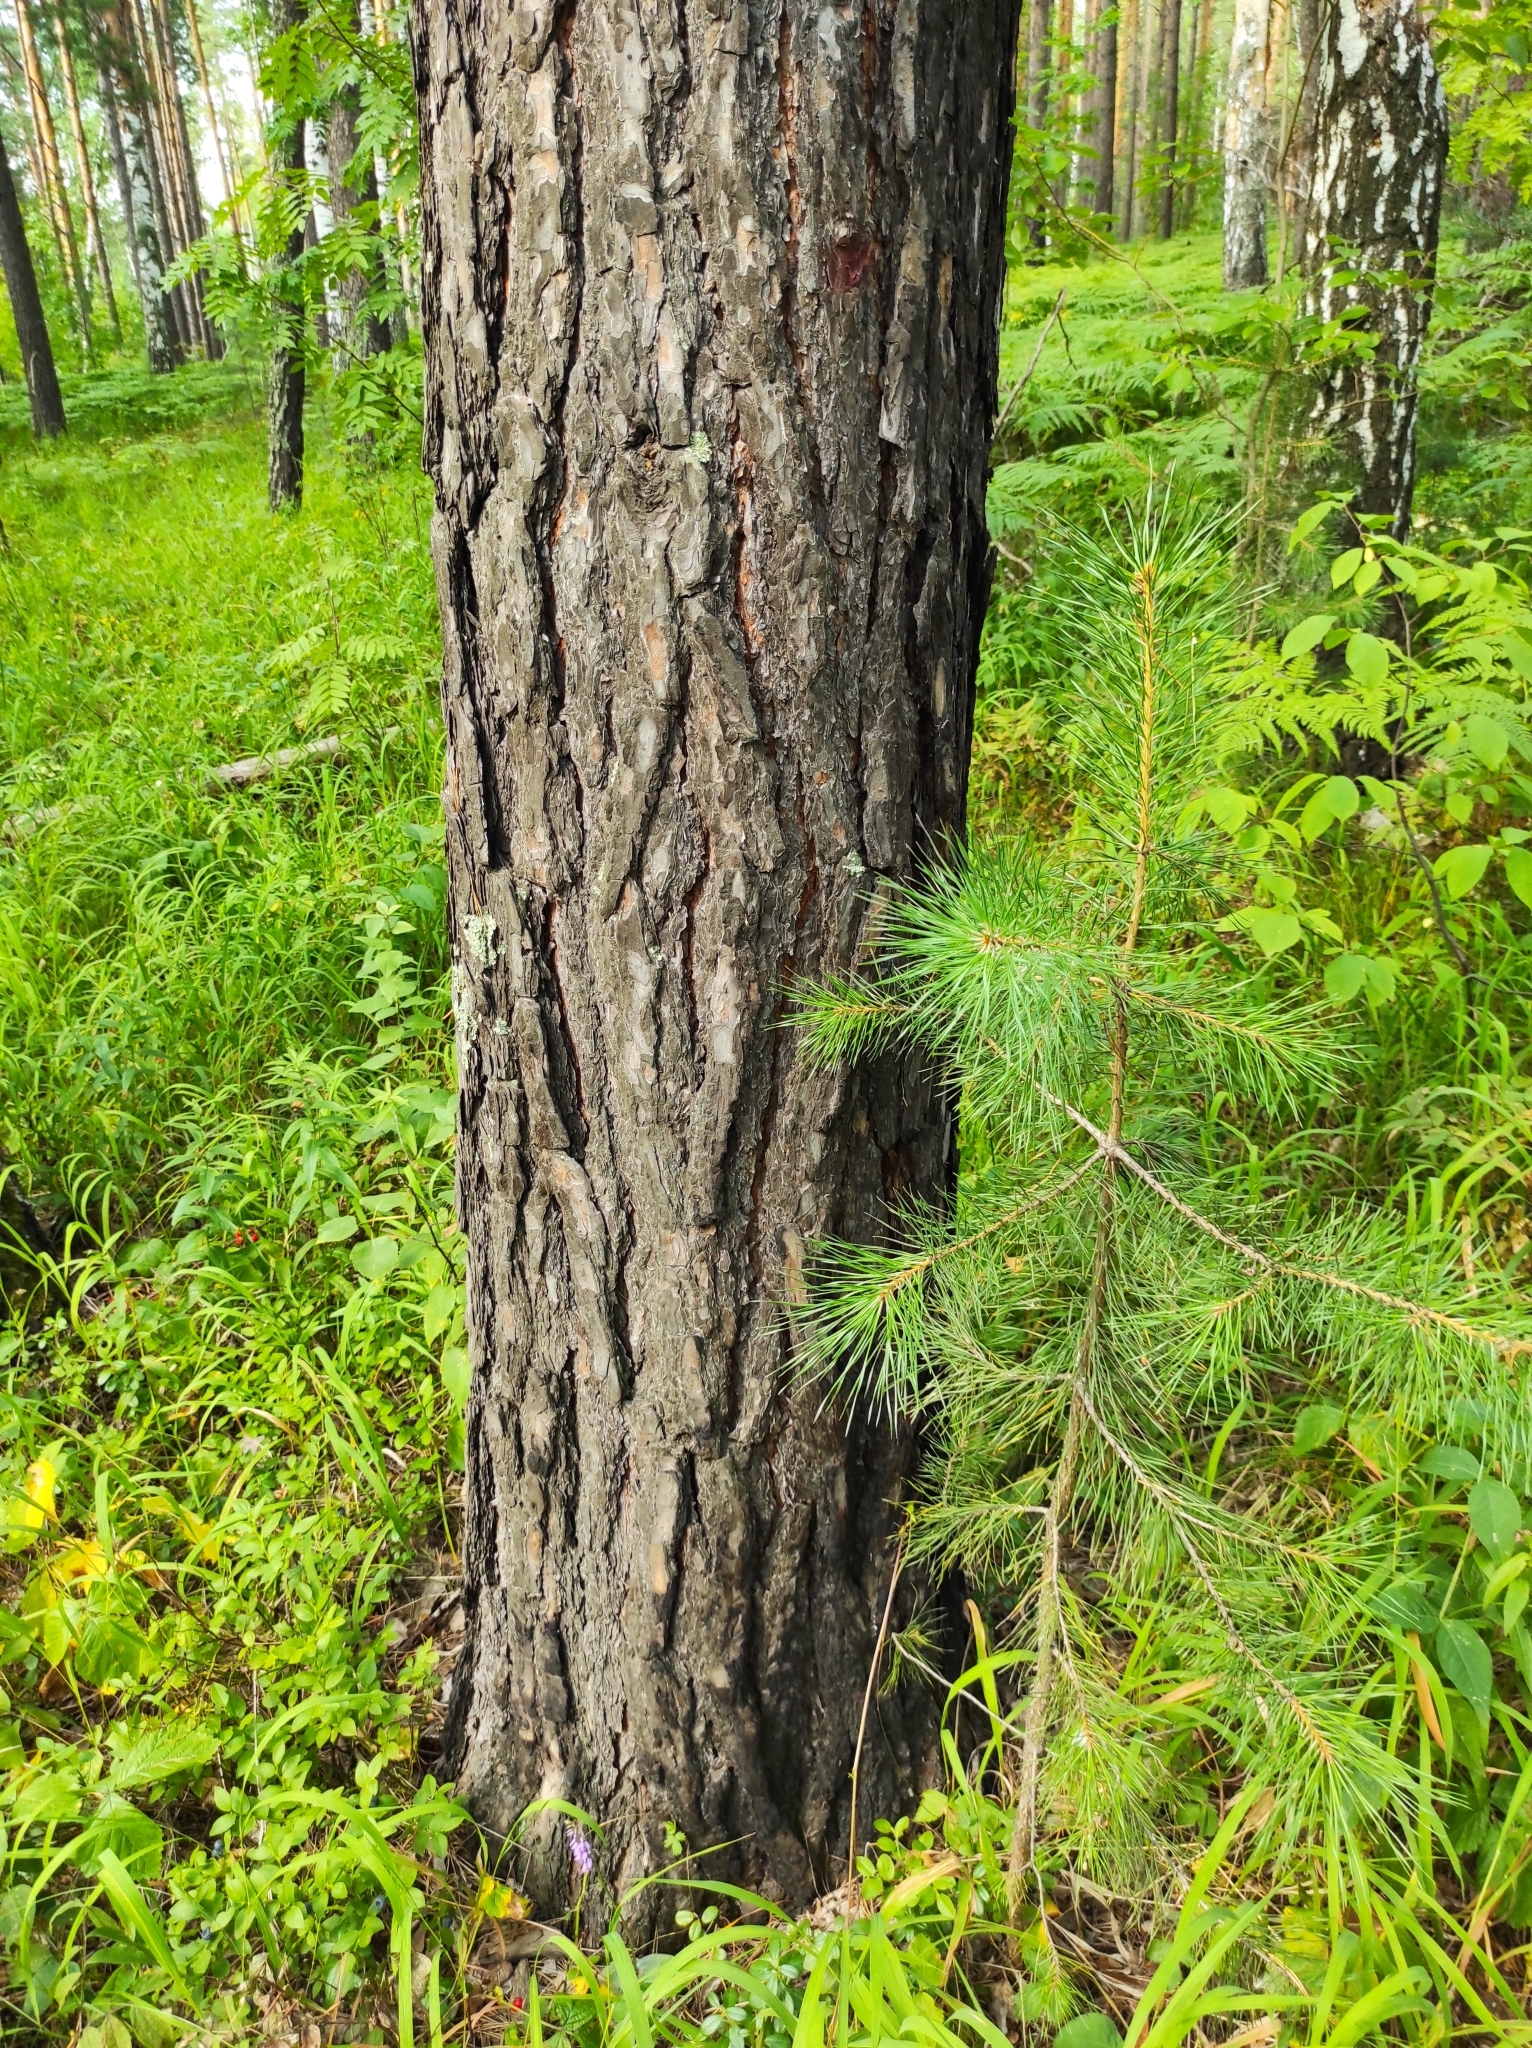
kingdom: Plantae
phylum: Tracheophyta
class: Liliopsida
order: Asparagales
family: Orchidaceae
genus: Hemipilia
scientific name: Hemipilia cucullata
